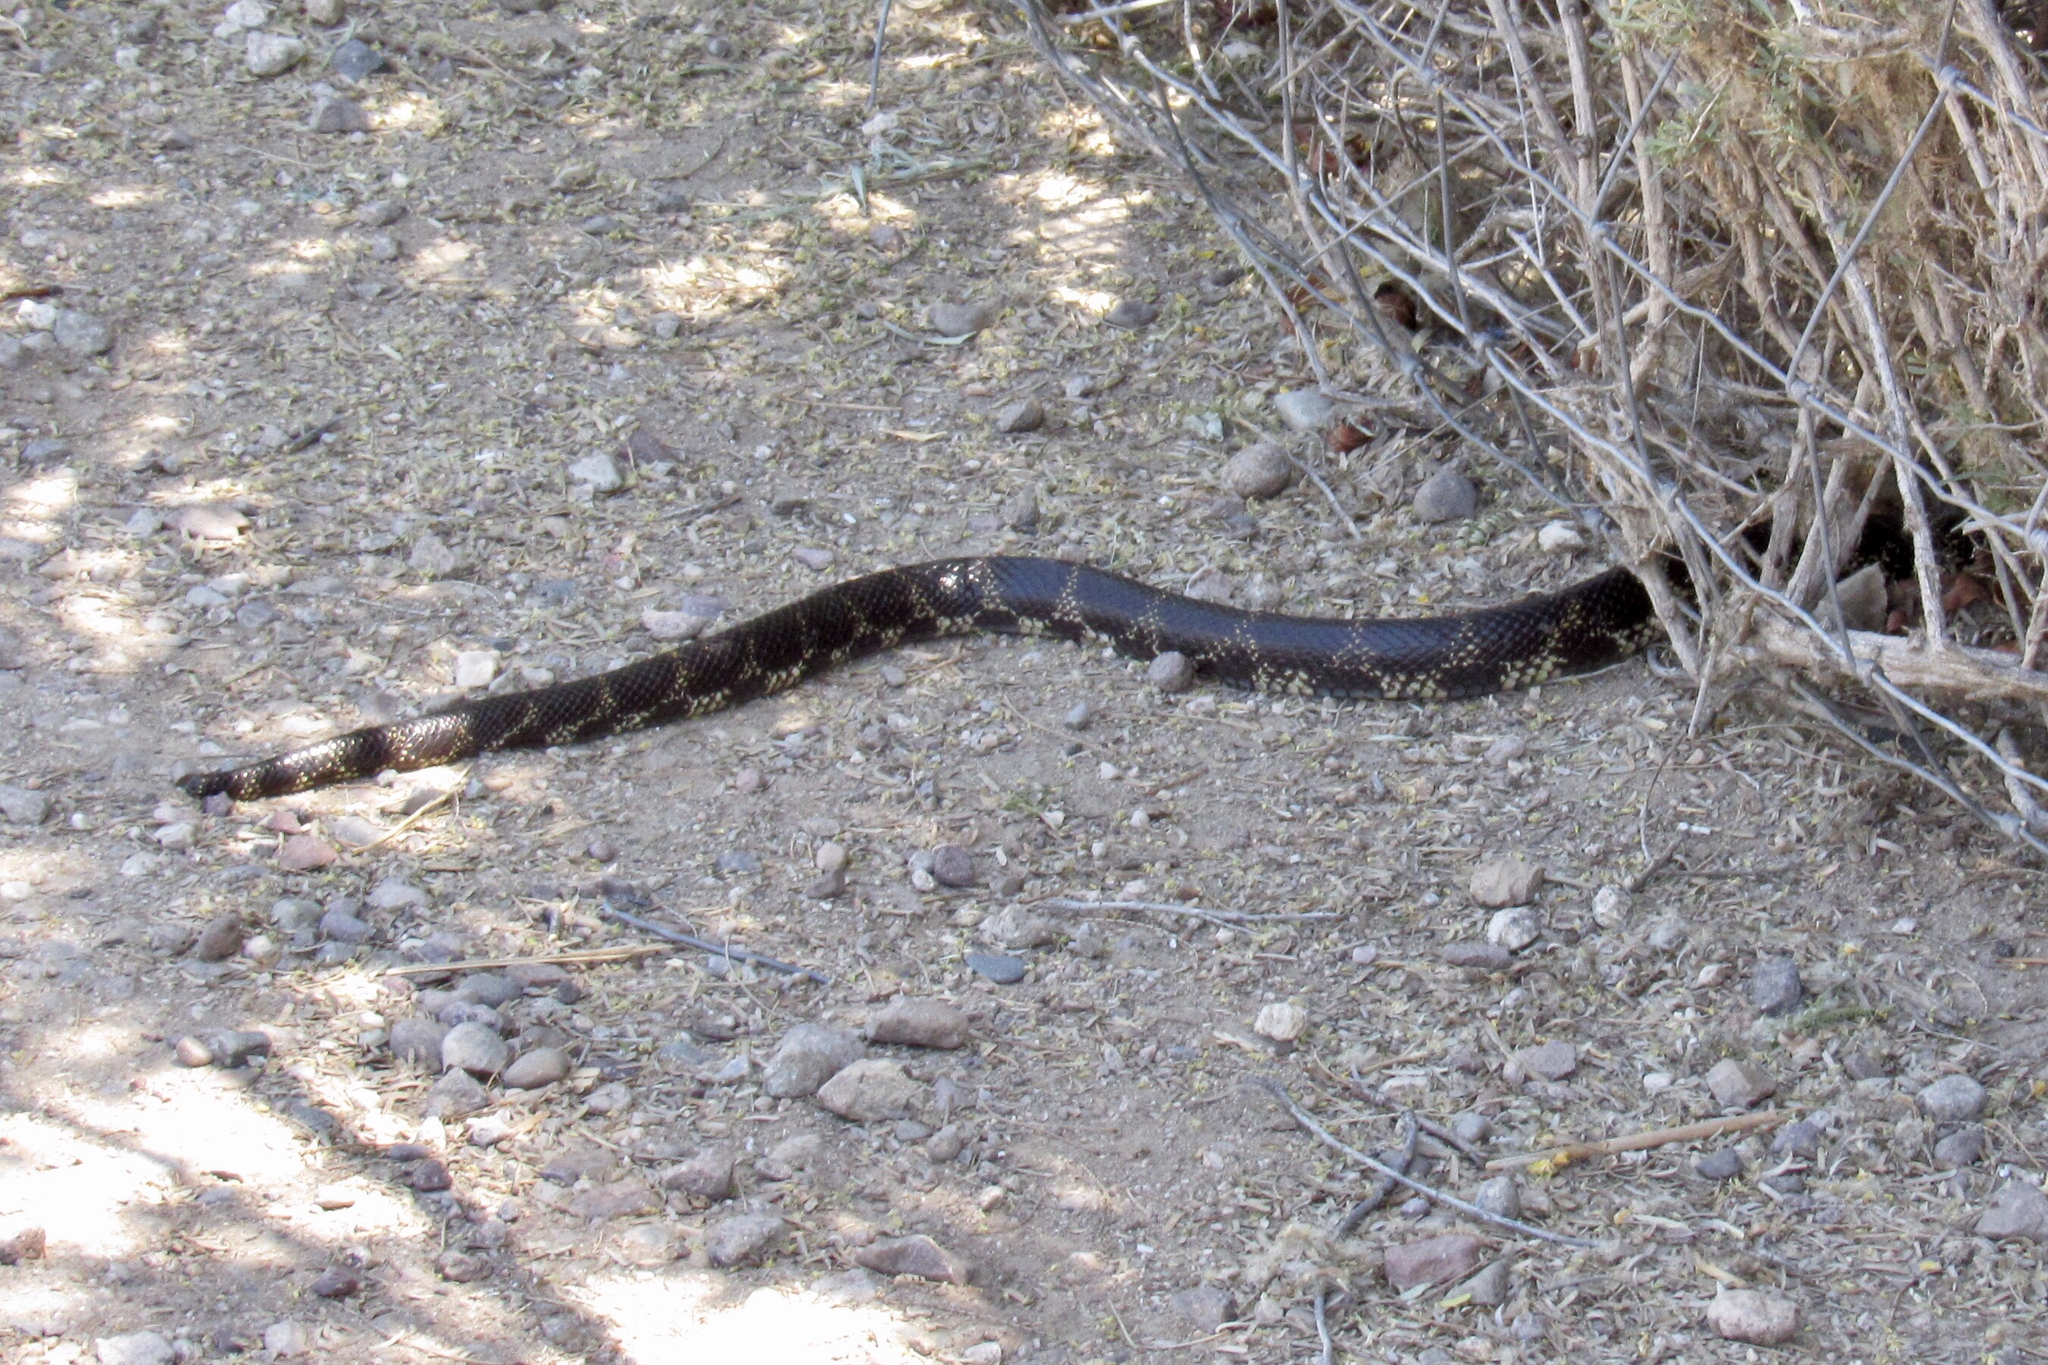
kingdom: Animalia
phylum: Chordata
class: Squamata
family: Colubridae
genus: Lampropeltis
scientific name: Lampropeltis splendida
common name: Desert kingsnake
